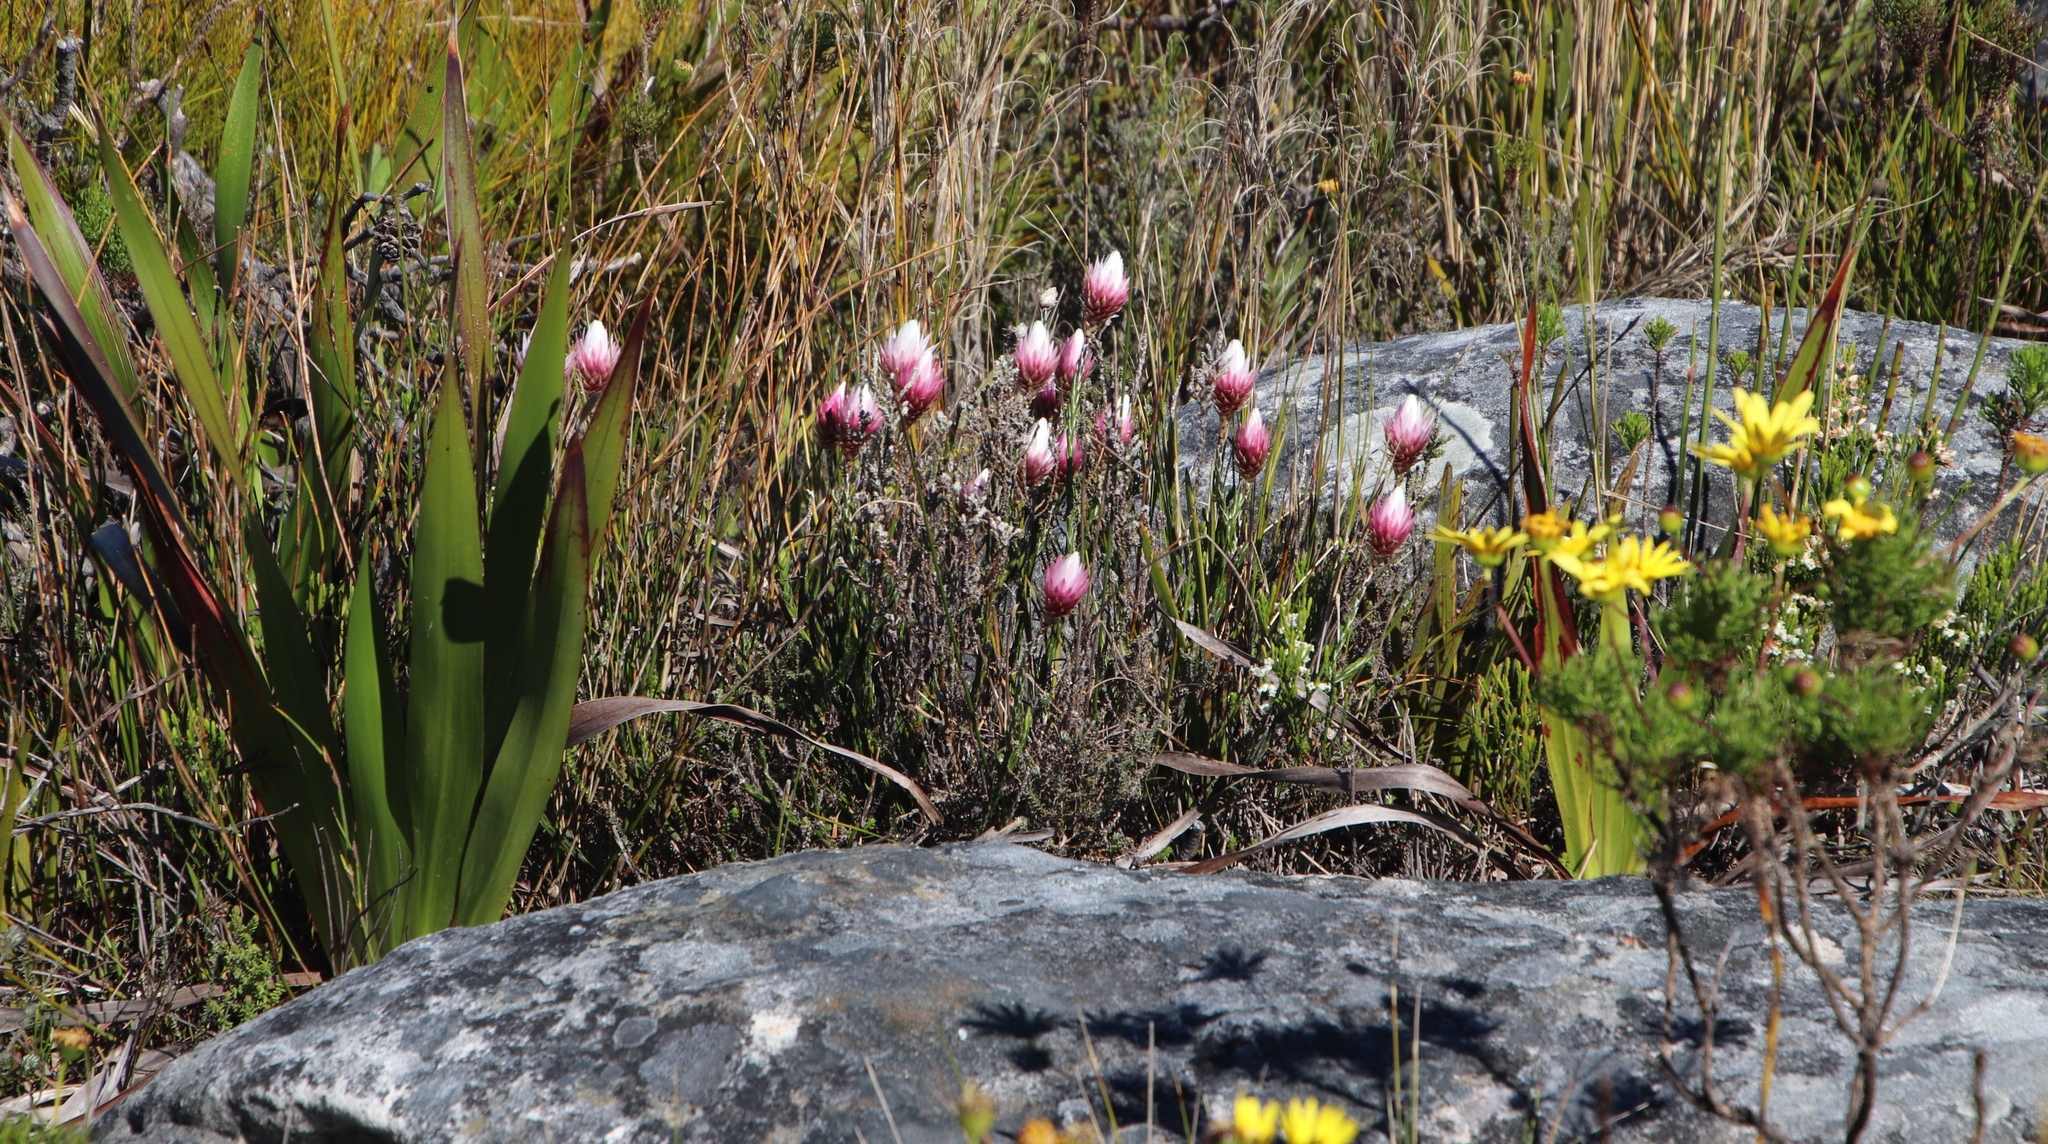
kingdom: Plantae
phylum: Tracheophyta
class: Magnoliopsida
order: Asterales
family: Asteraceae
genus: Edmondia
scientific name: Edmondia pinifolia
